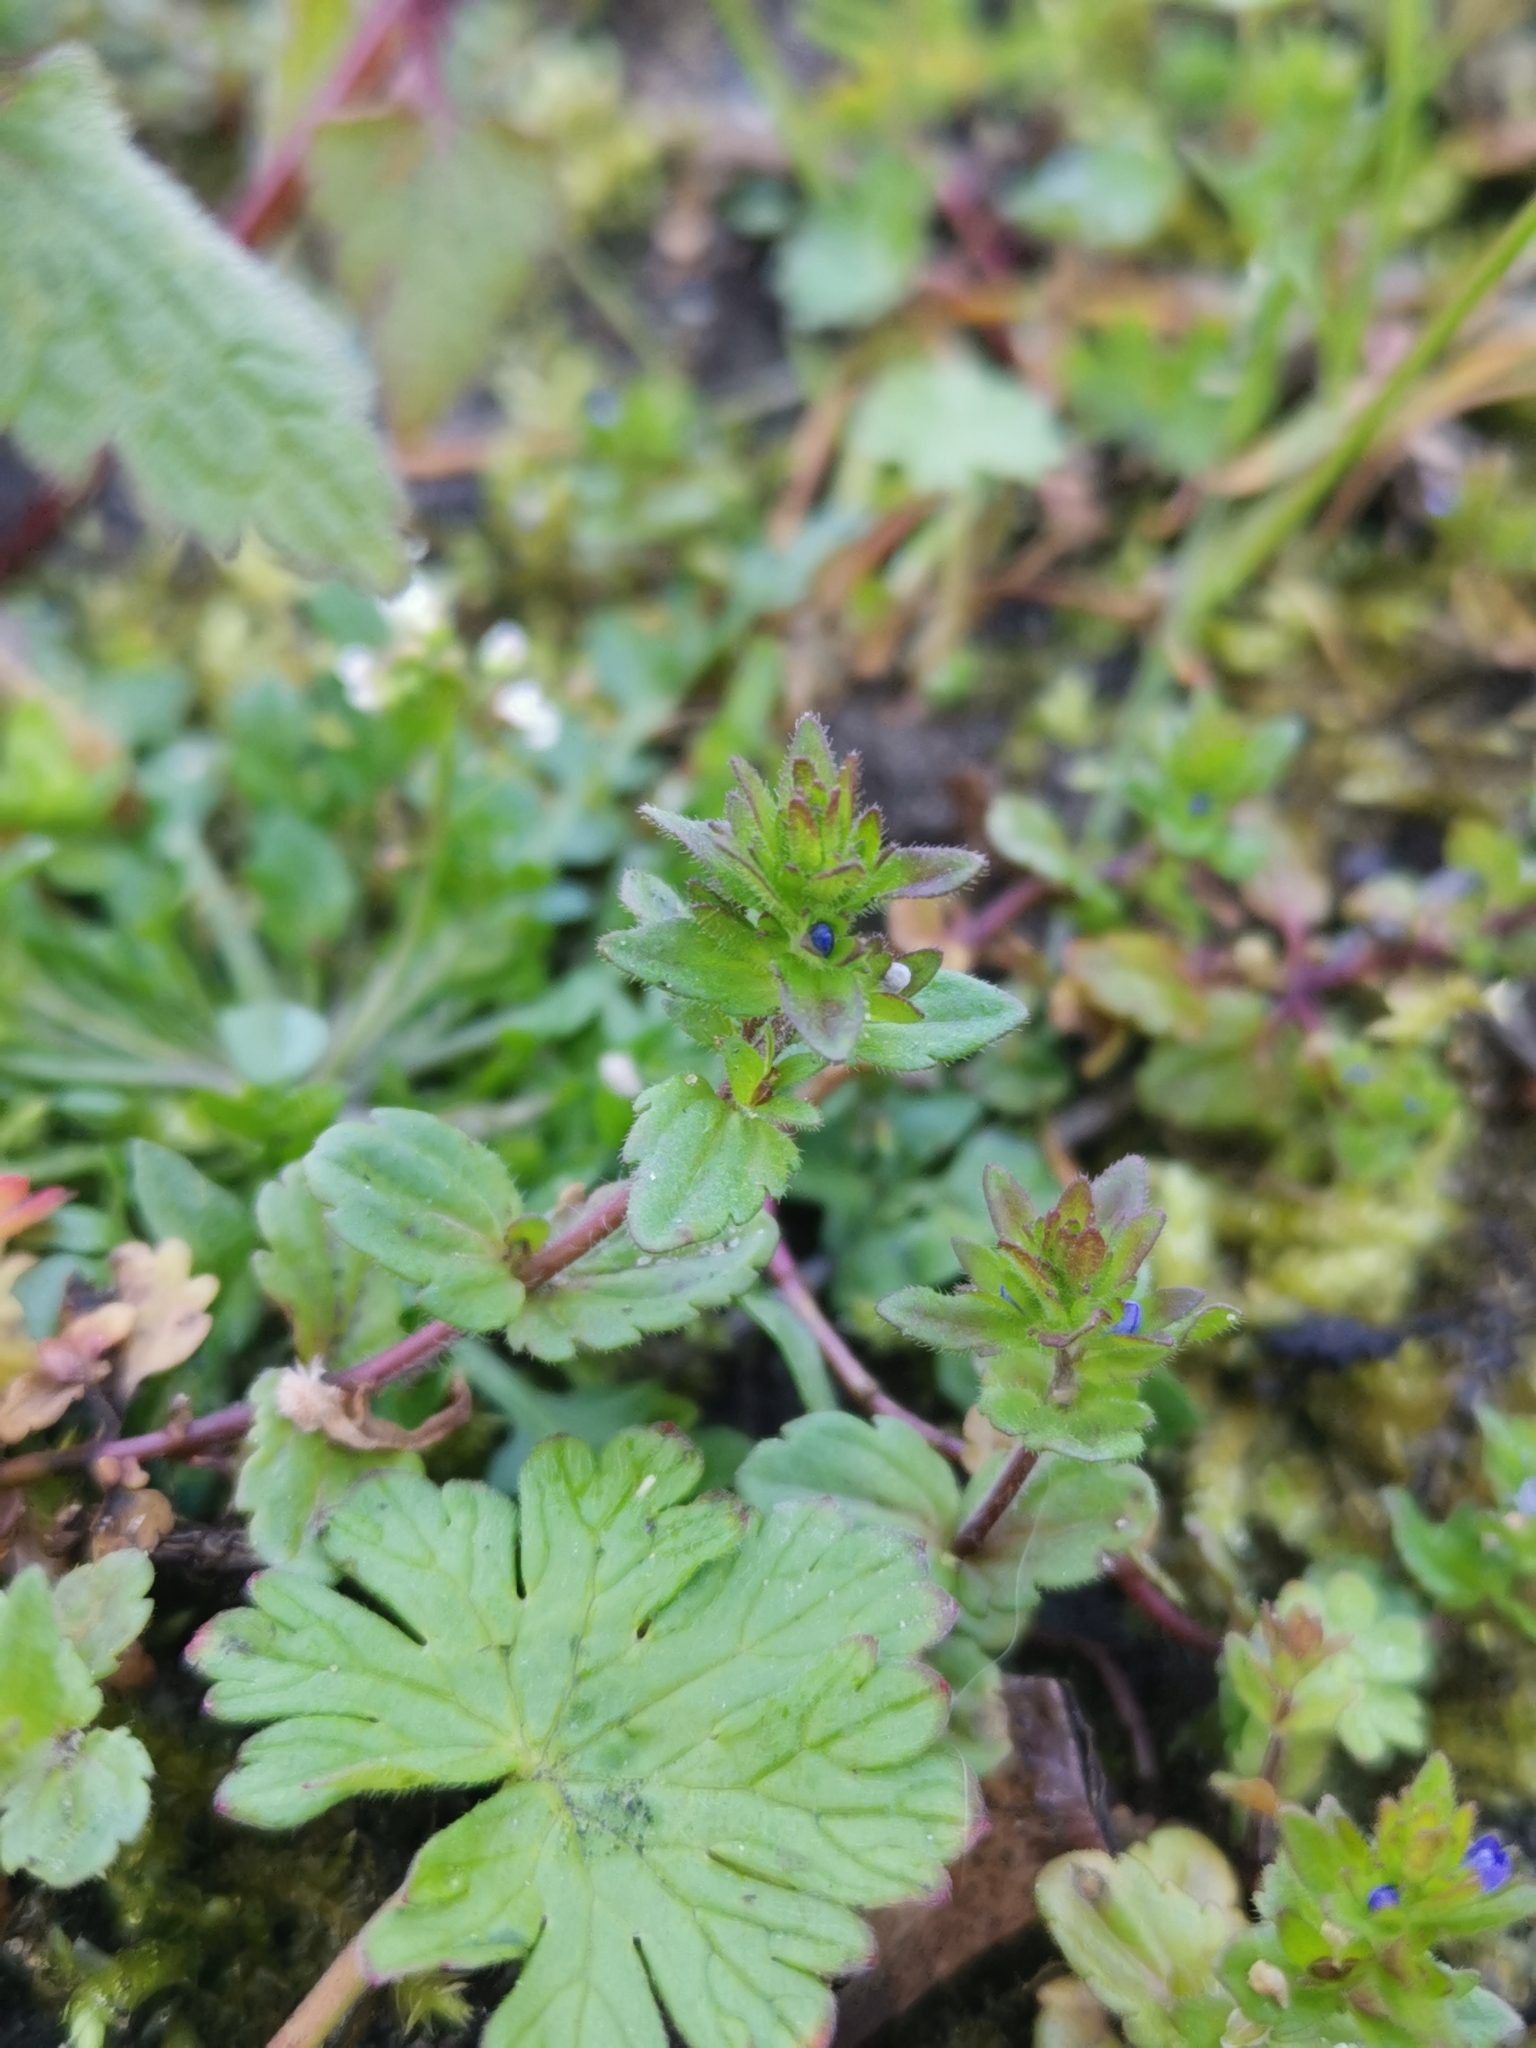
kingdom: Plantae
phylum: Tracheophyta
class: Magnoliopsida
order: Lamiales
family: Plantaginaceae
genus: Veronica
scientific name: Veronica arvensis
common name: Corn speedwell
